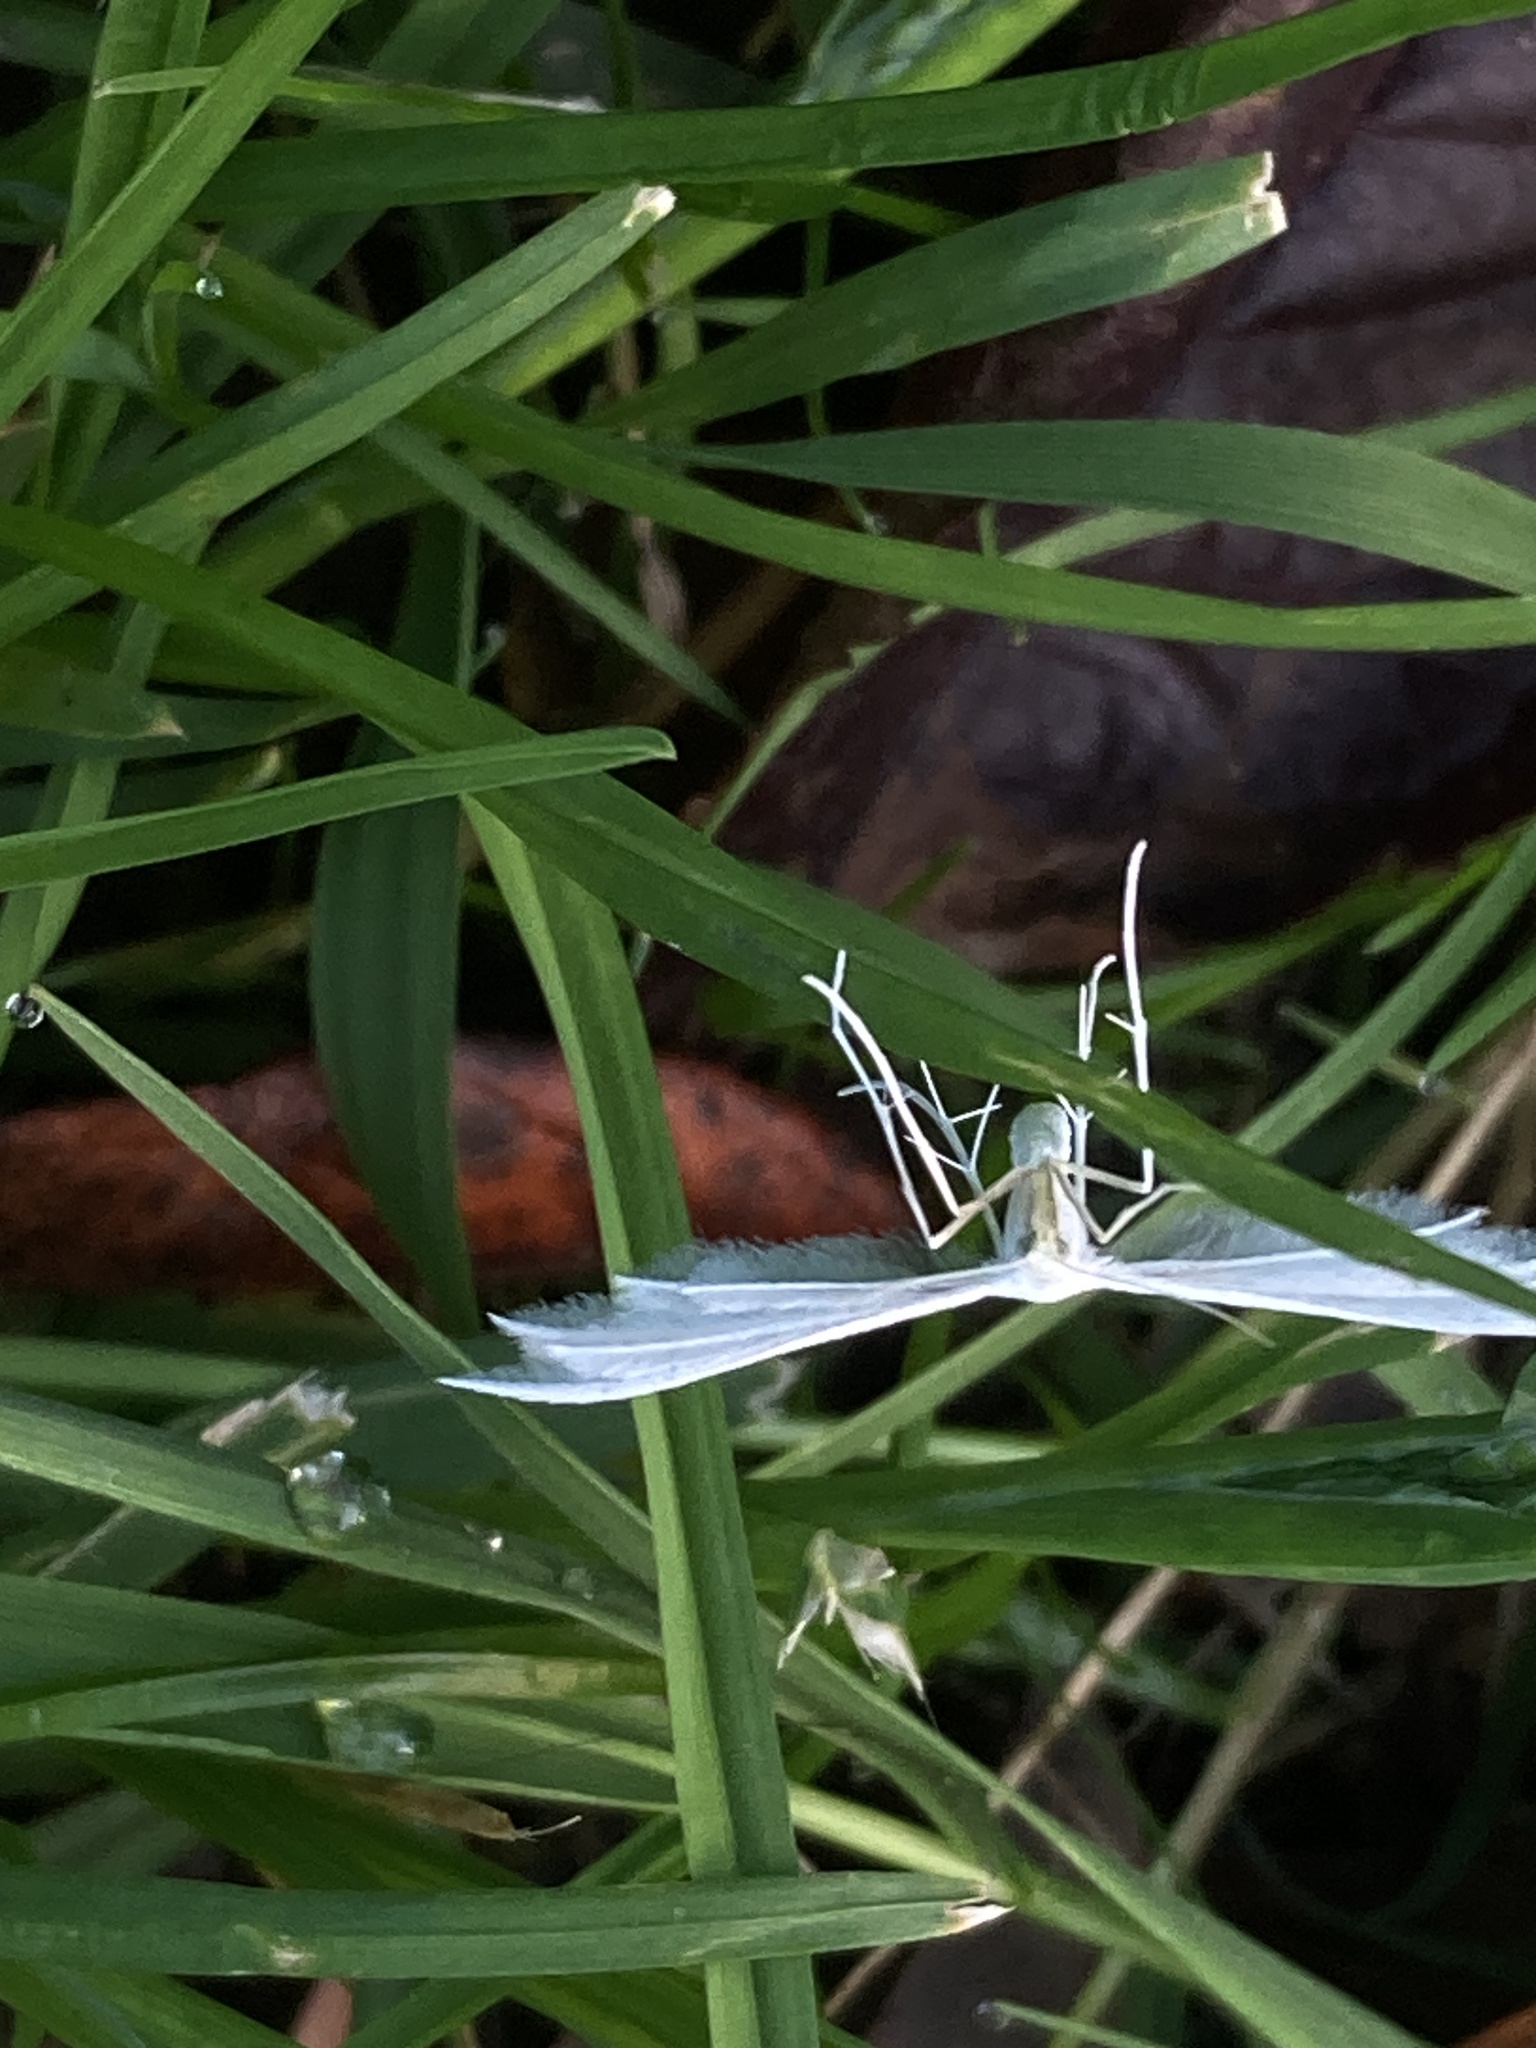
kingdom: Animalia
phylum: Arthropoda
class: Insecta
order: Lepidoptera
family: Pterophoridae
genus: Pterophorus
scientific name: Pterophorus pentadactyla
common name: White plume moth
